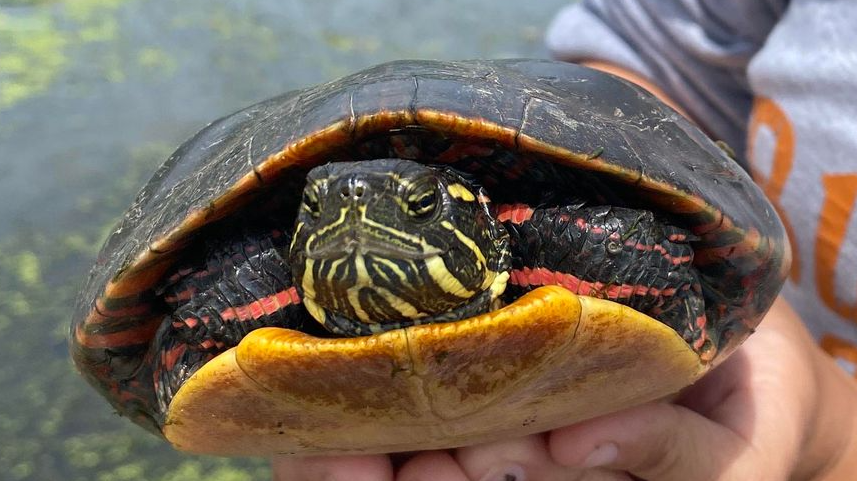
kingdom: Animalia
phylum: Chordata
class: Testudines
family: Emydidae
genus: Chrysemys
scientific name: Chrysemys picta
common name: Painted turtle
